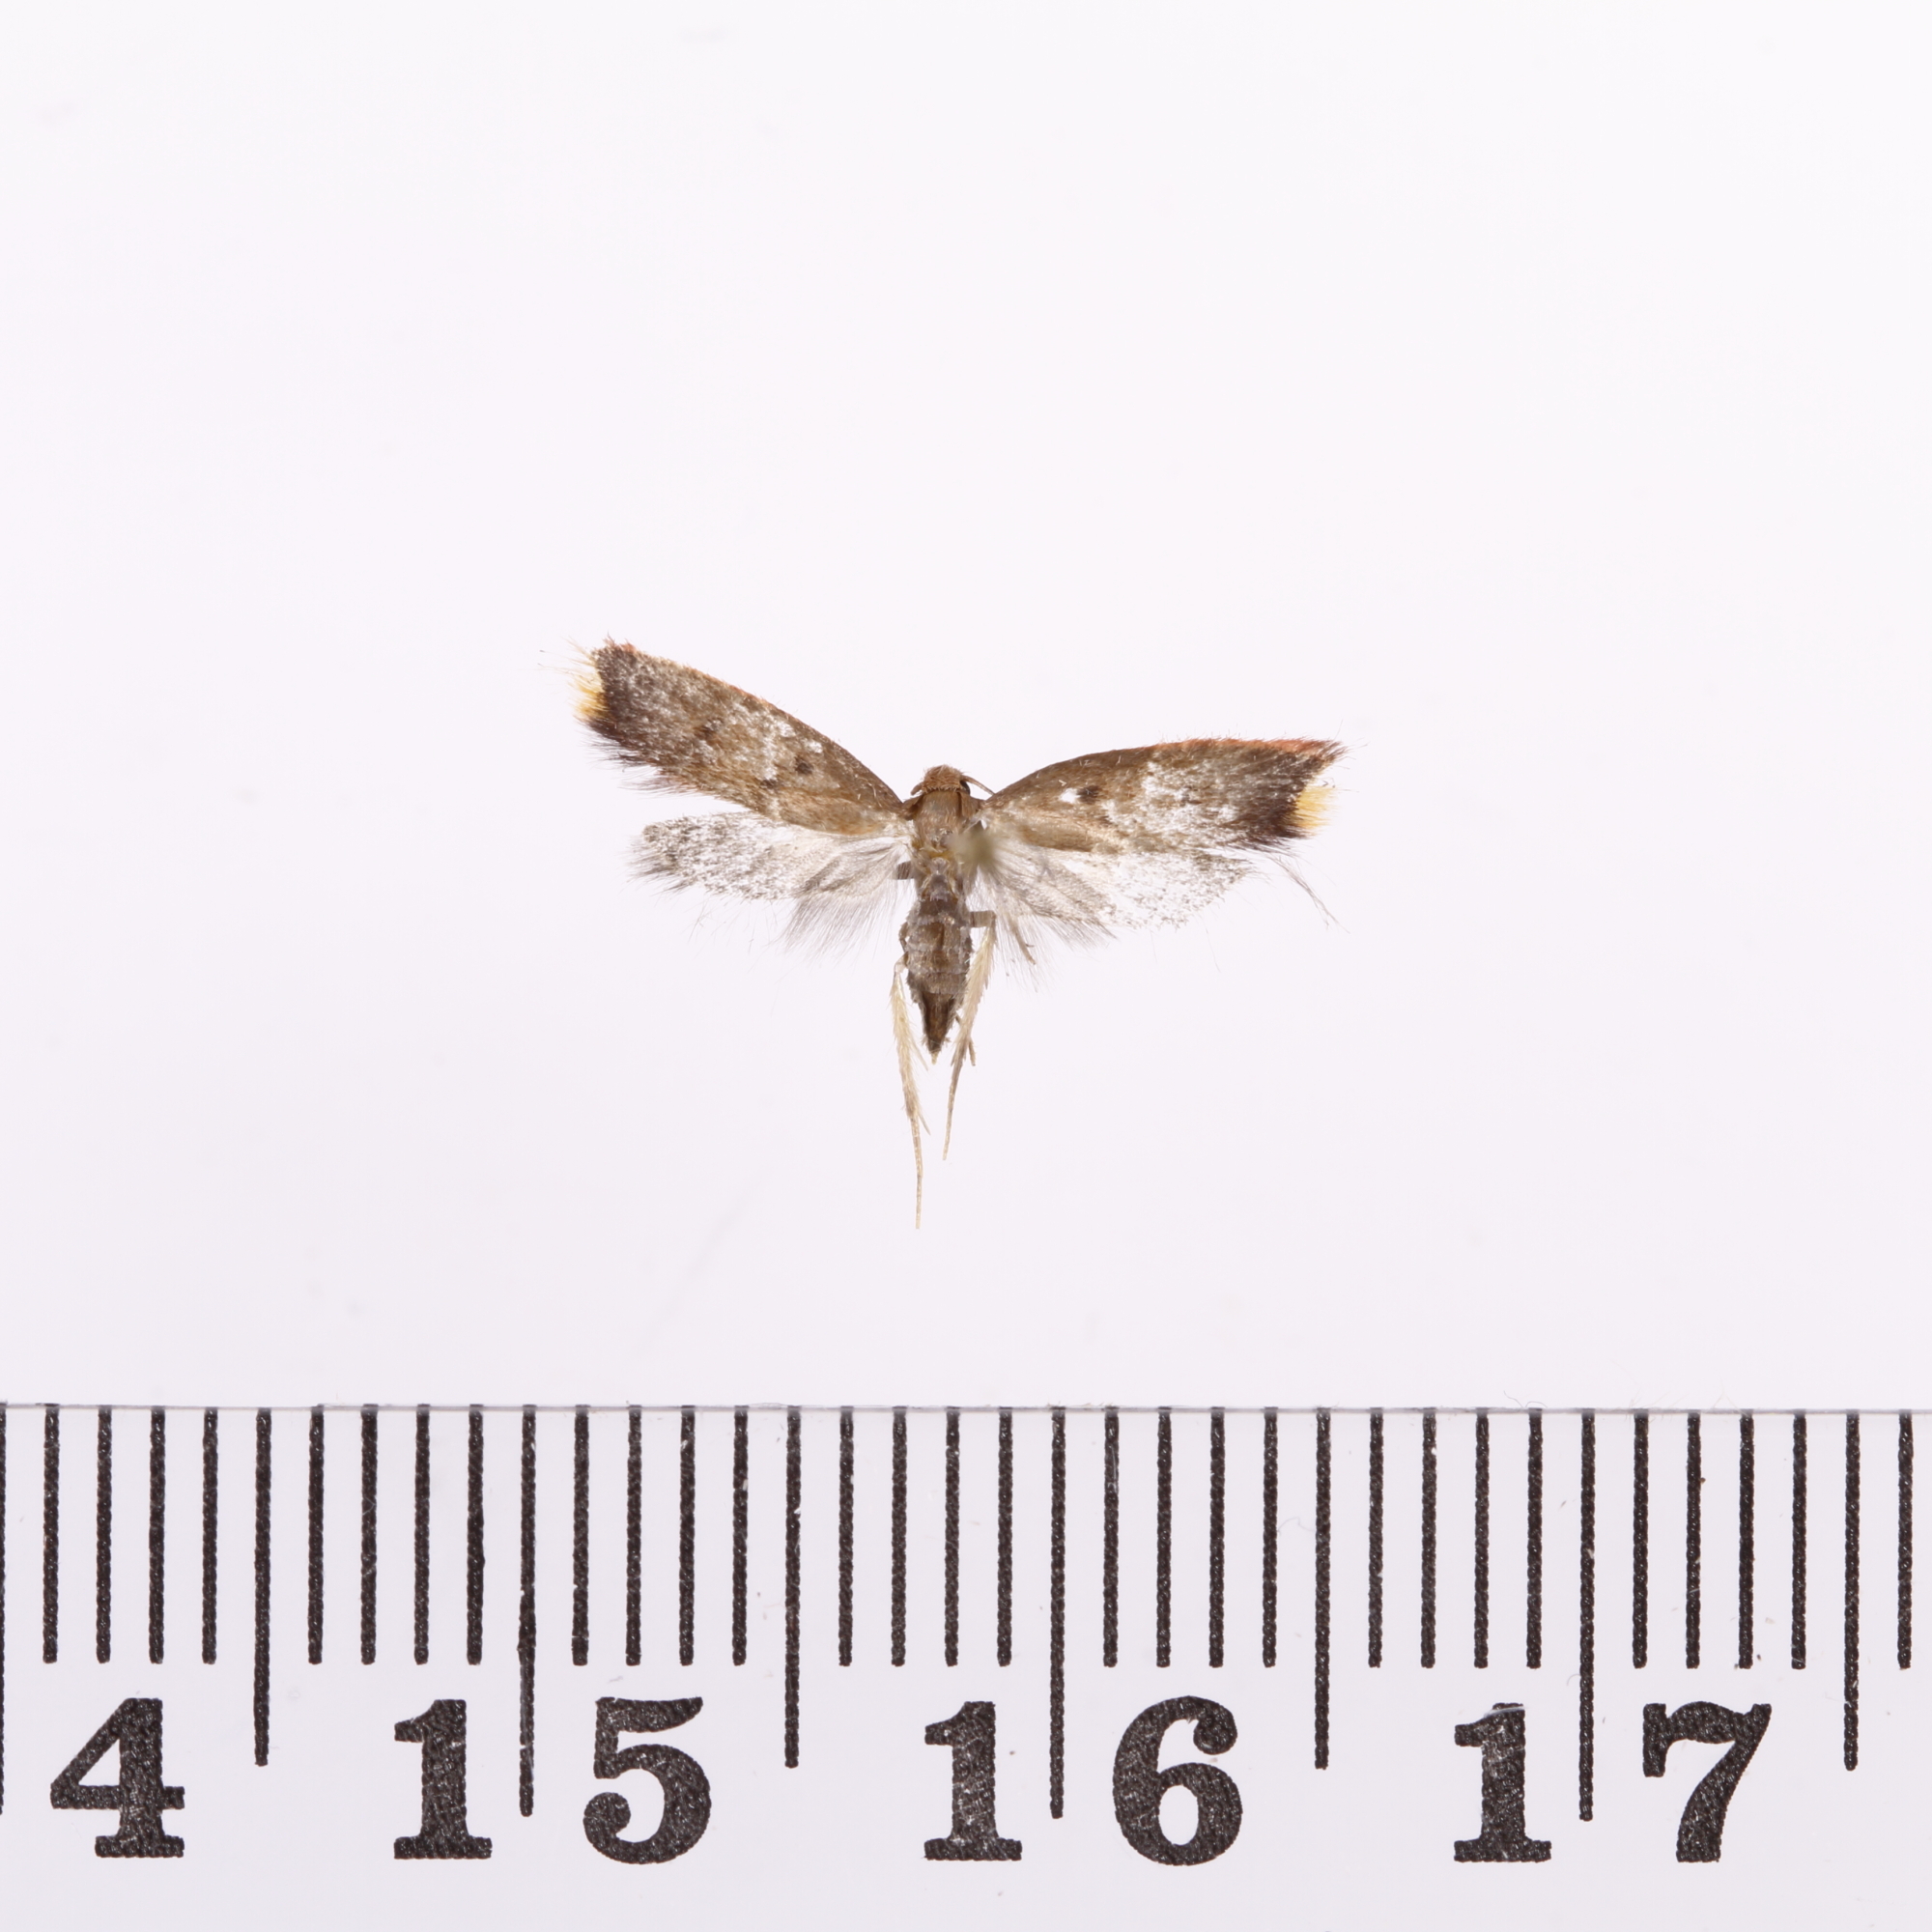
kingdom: Animalia
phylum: Arthropoda
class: Insecta
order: Lepidoptera
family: Oecophoridae
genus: Tachystola
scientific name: Tachystola acroxantha
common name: Ruddy streak
